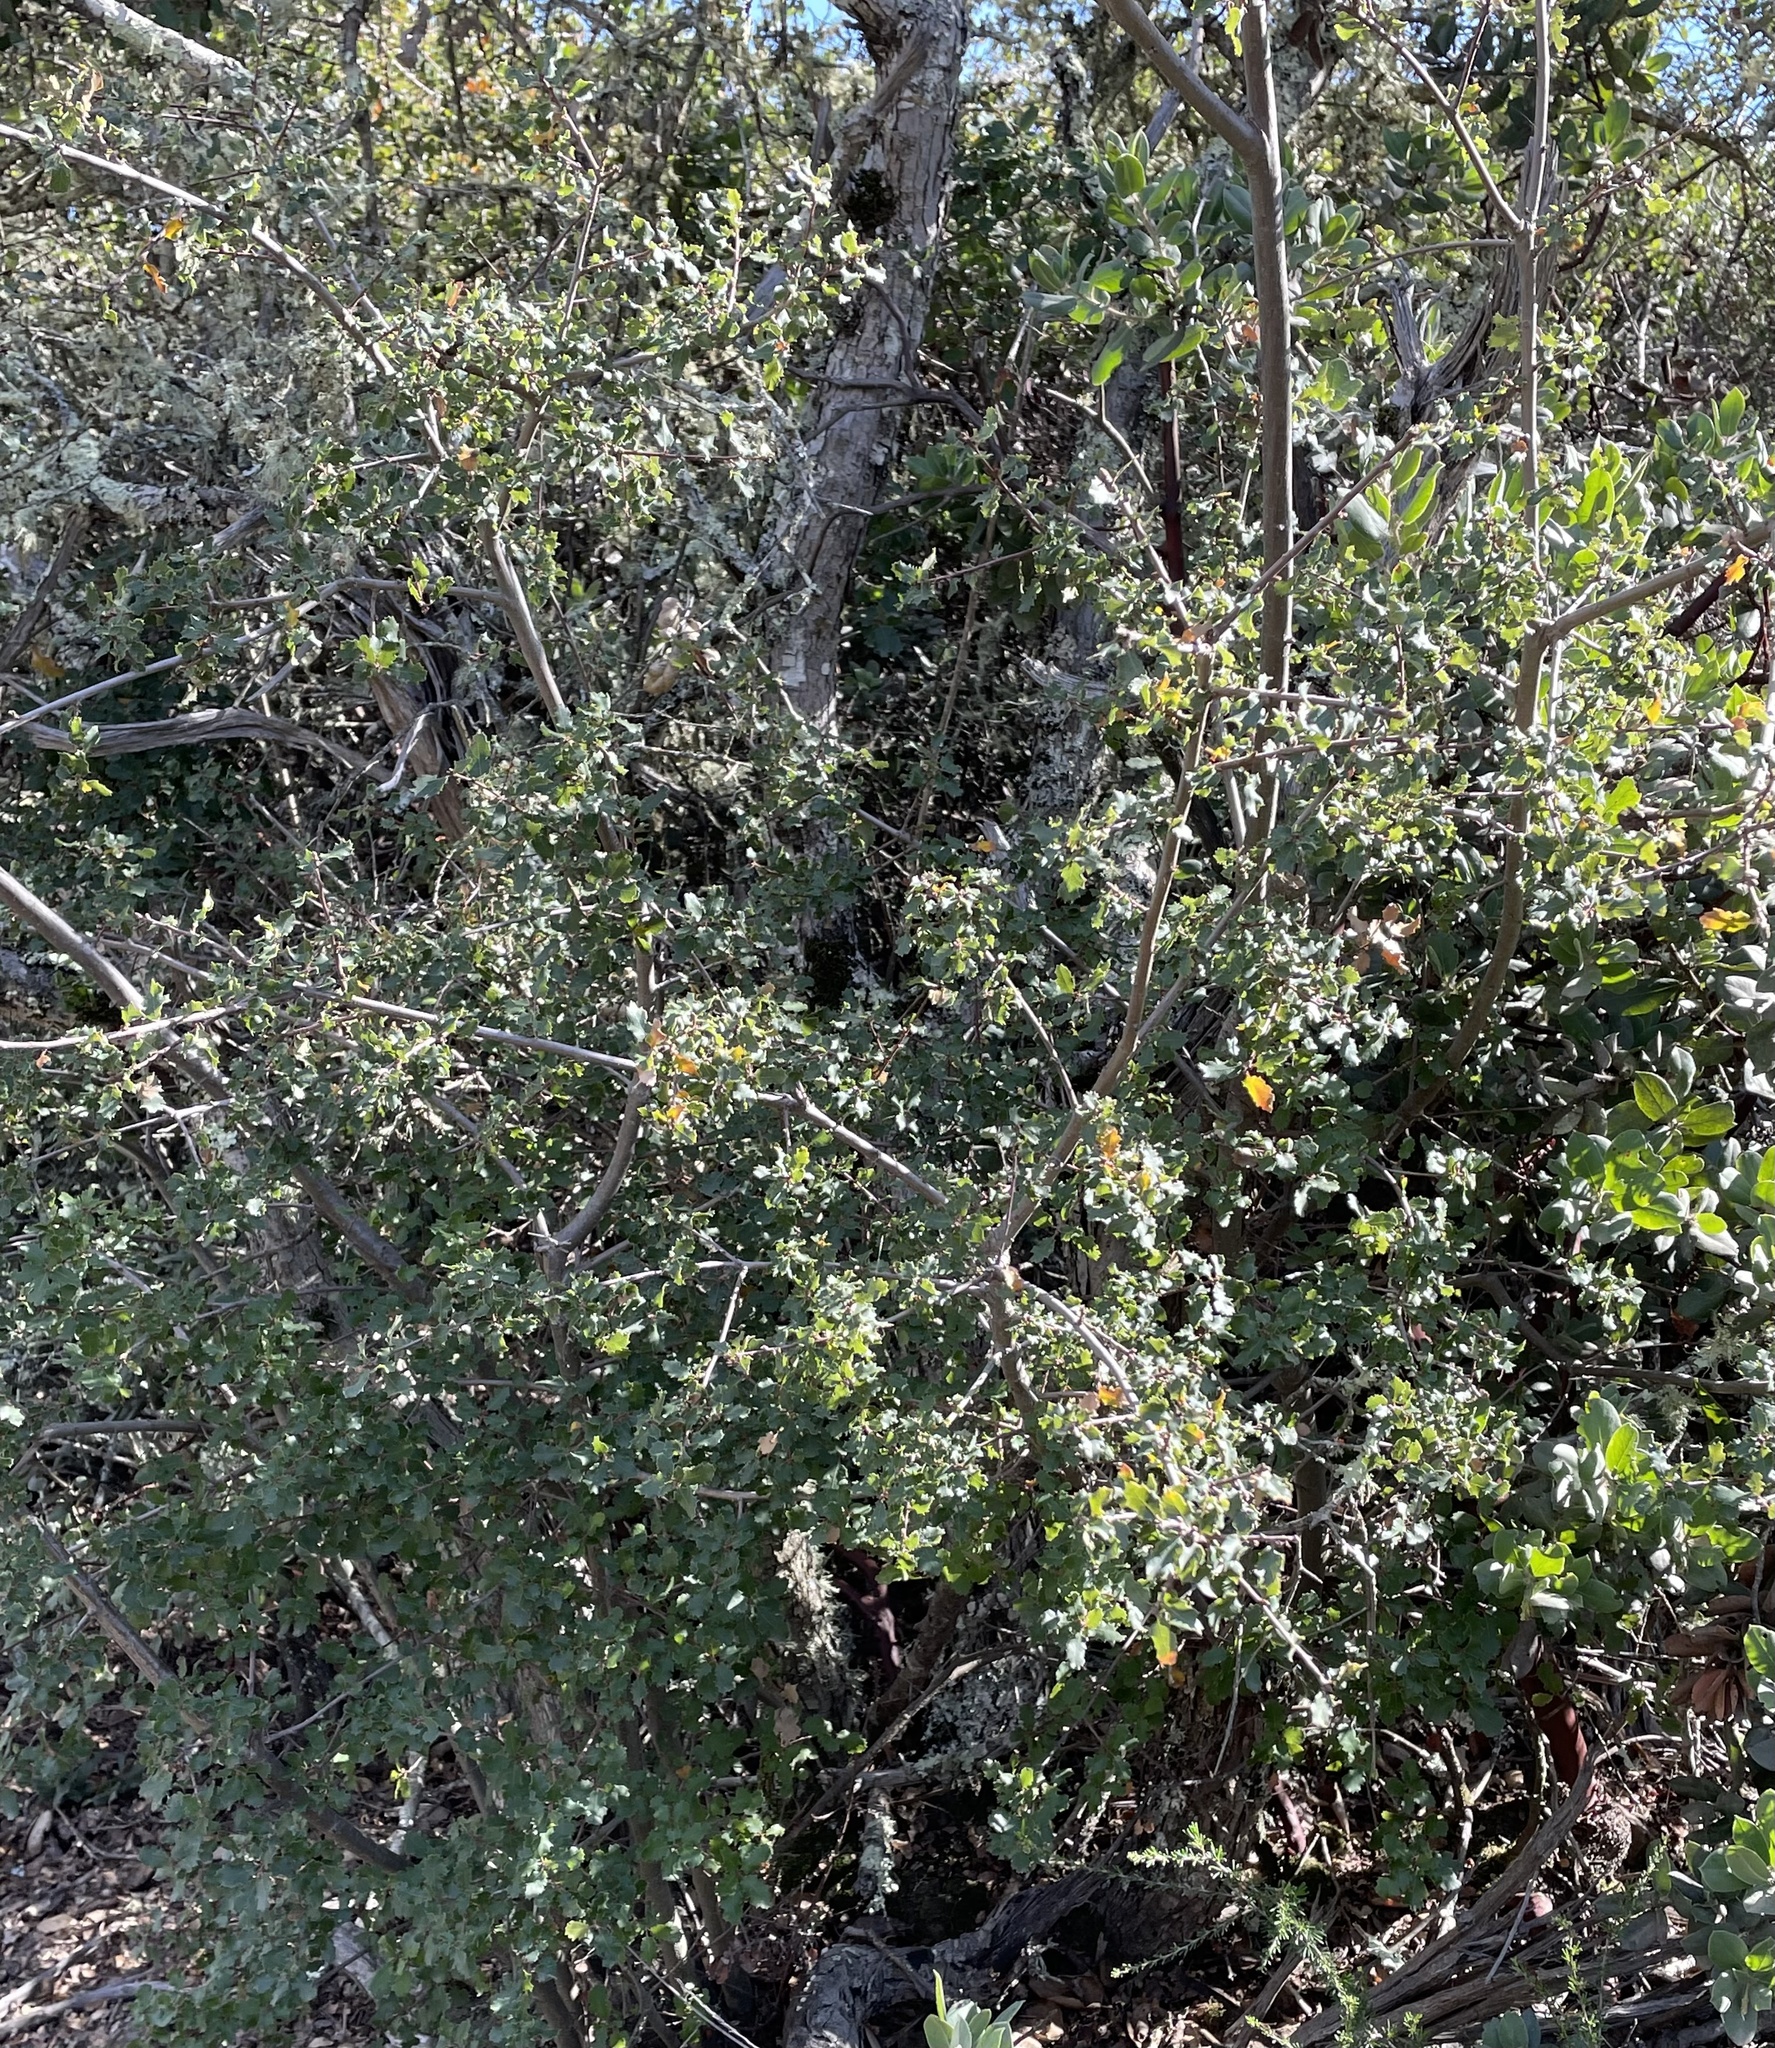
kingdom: Plantae
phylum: Tracheophyta
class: Magnoliopsida
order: Fagales
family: Fagaceae
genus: Quercus
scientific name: Quercus berberidifolia
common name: California scrub oak
